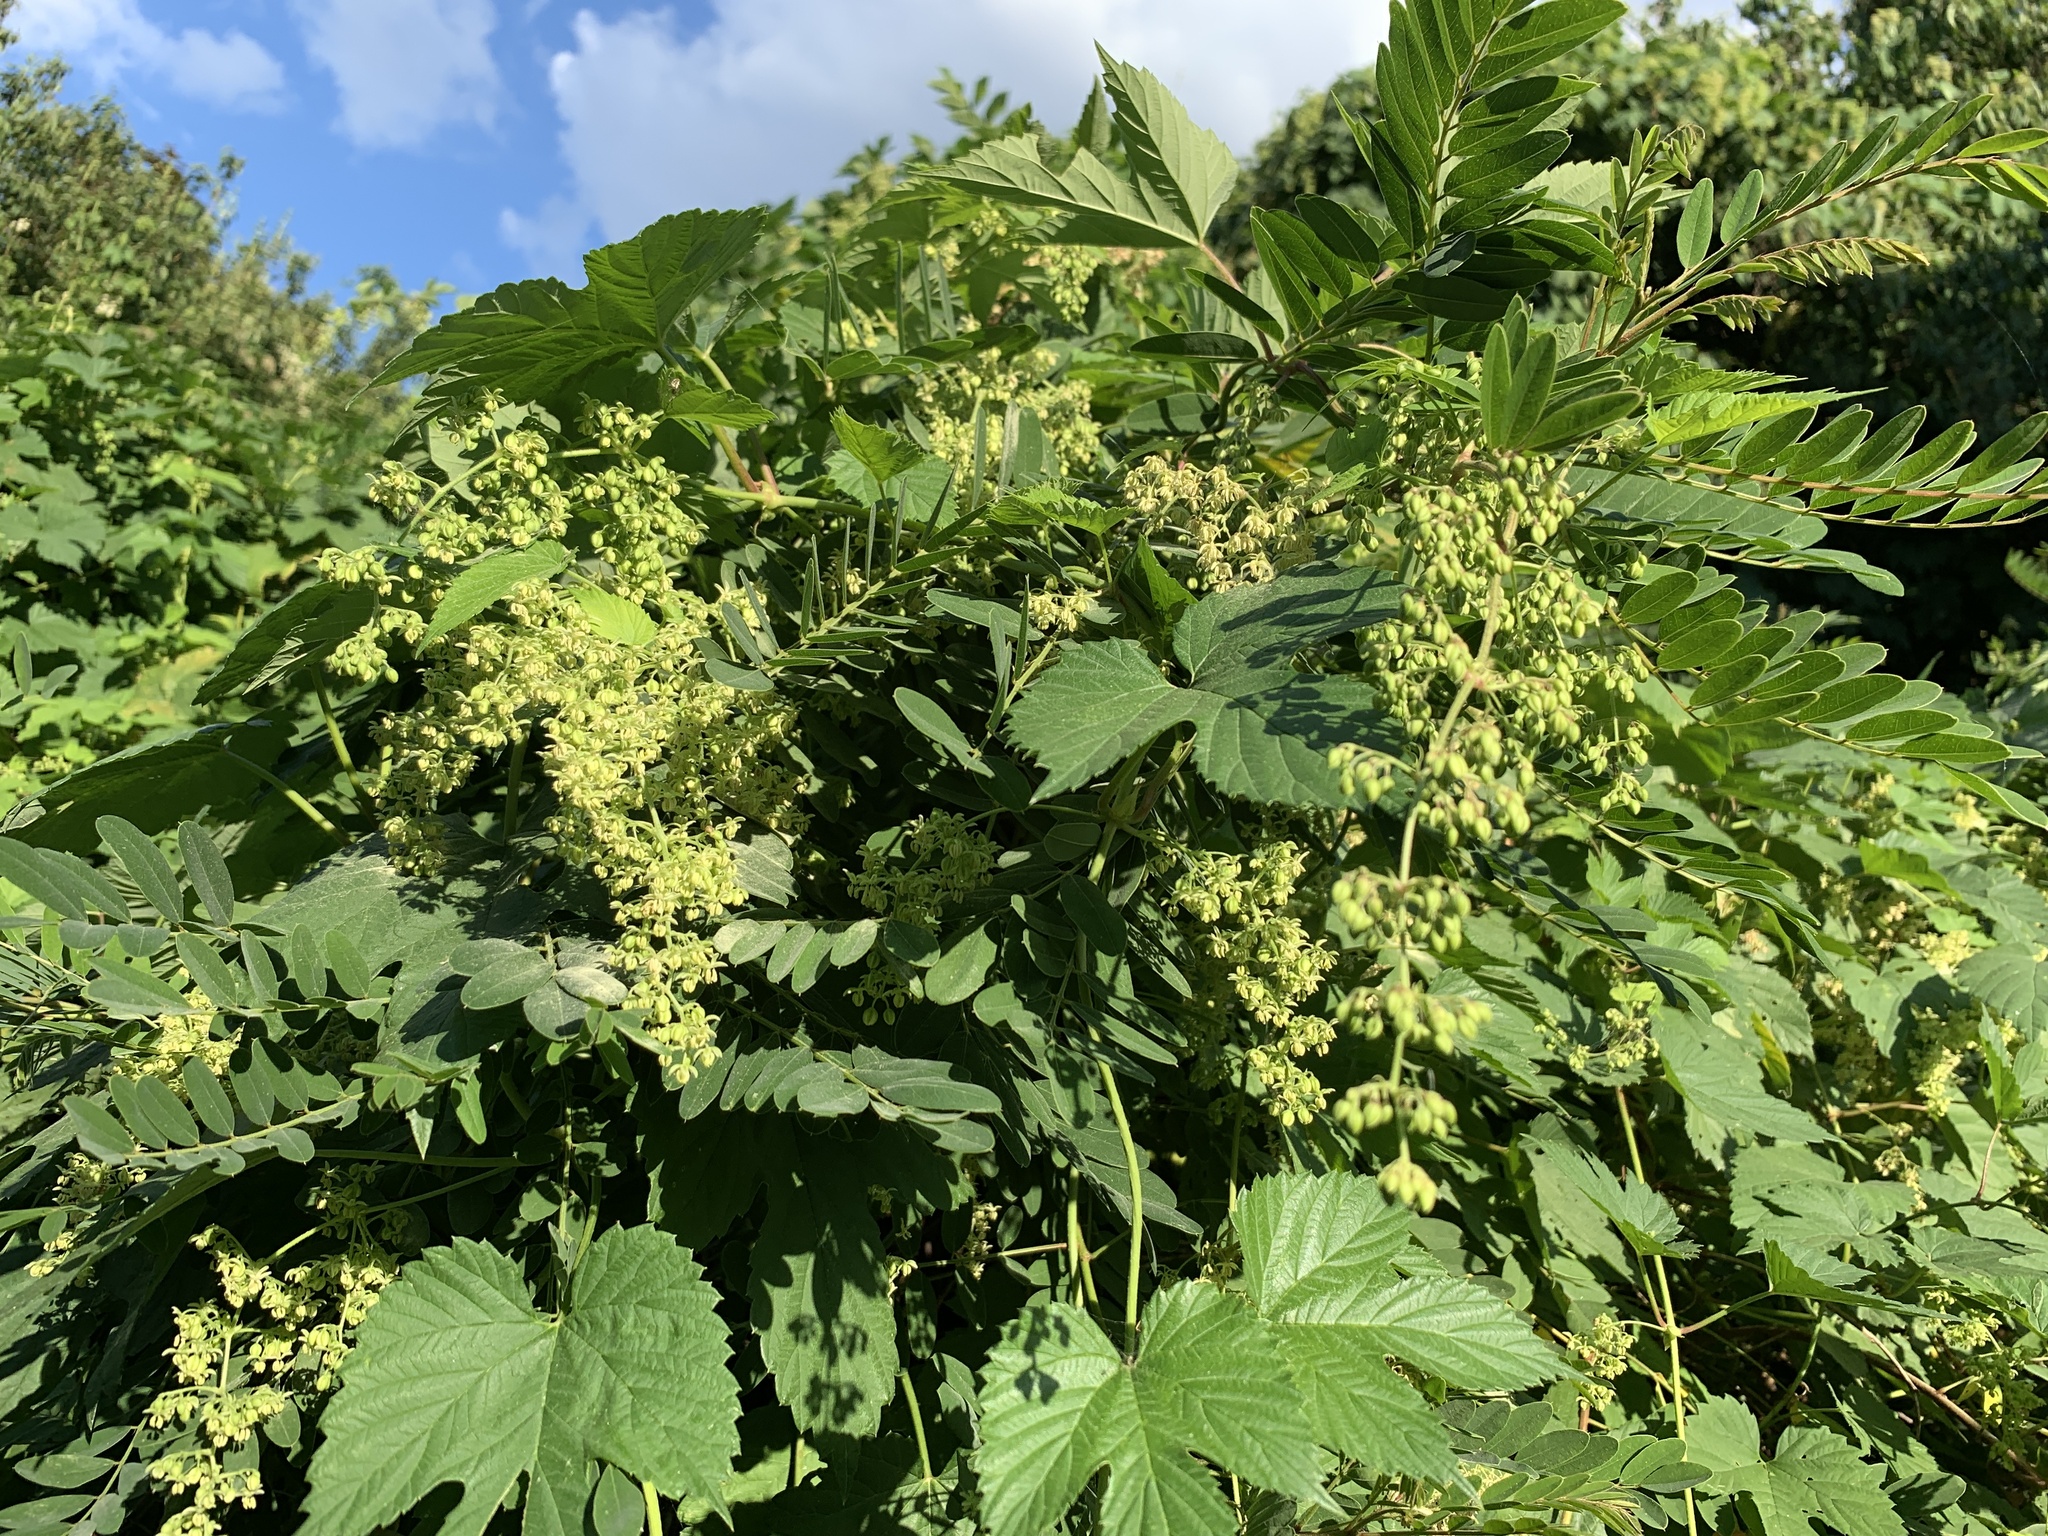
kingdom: Plantae
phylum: Tracheophyta
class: Magnoliopsida
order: Rosales
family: Cannabaceae
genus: Humulus
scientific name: Humulus lupulus
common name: Hop
